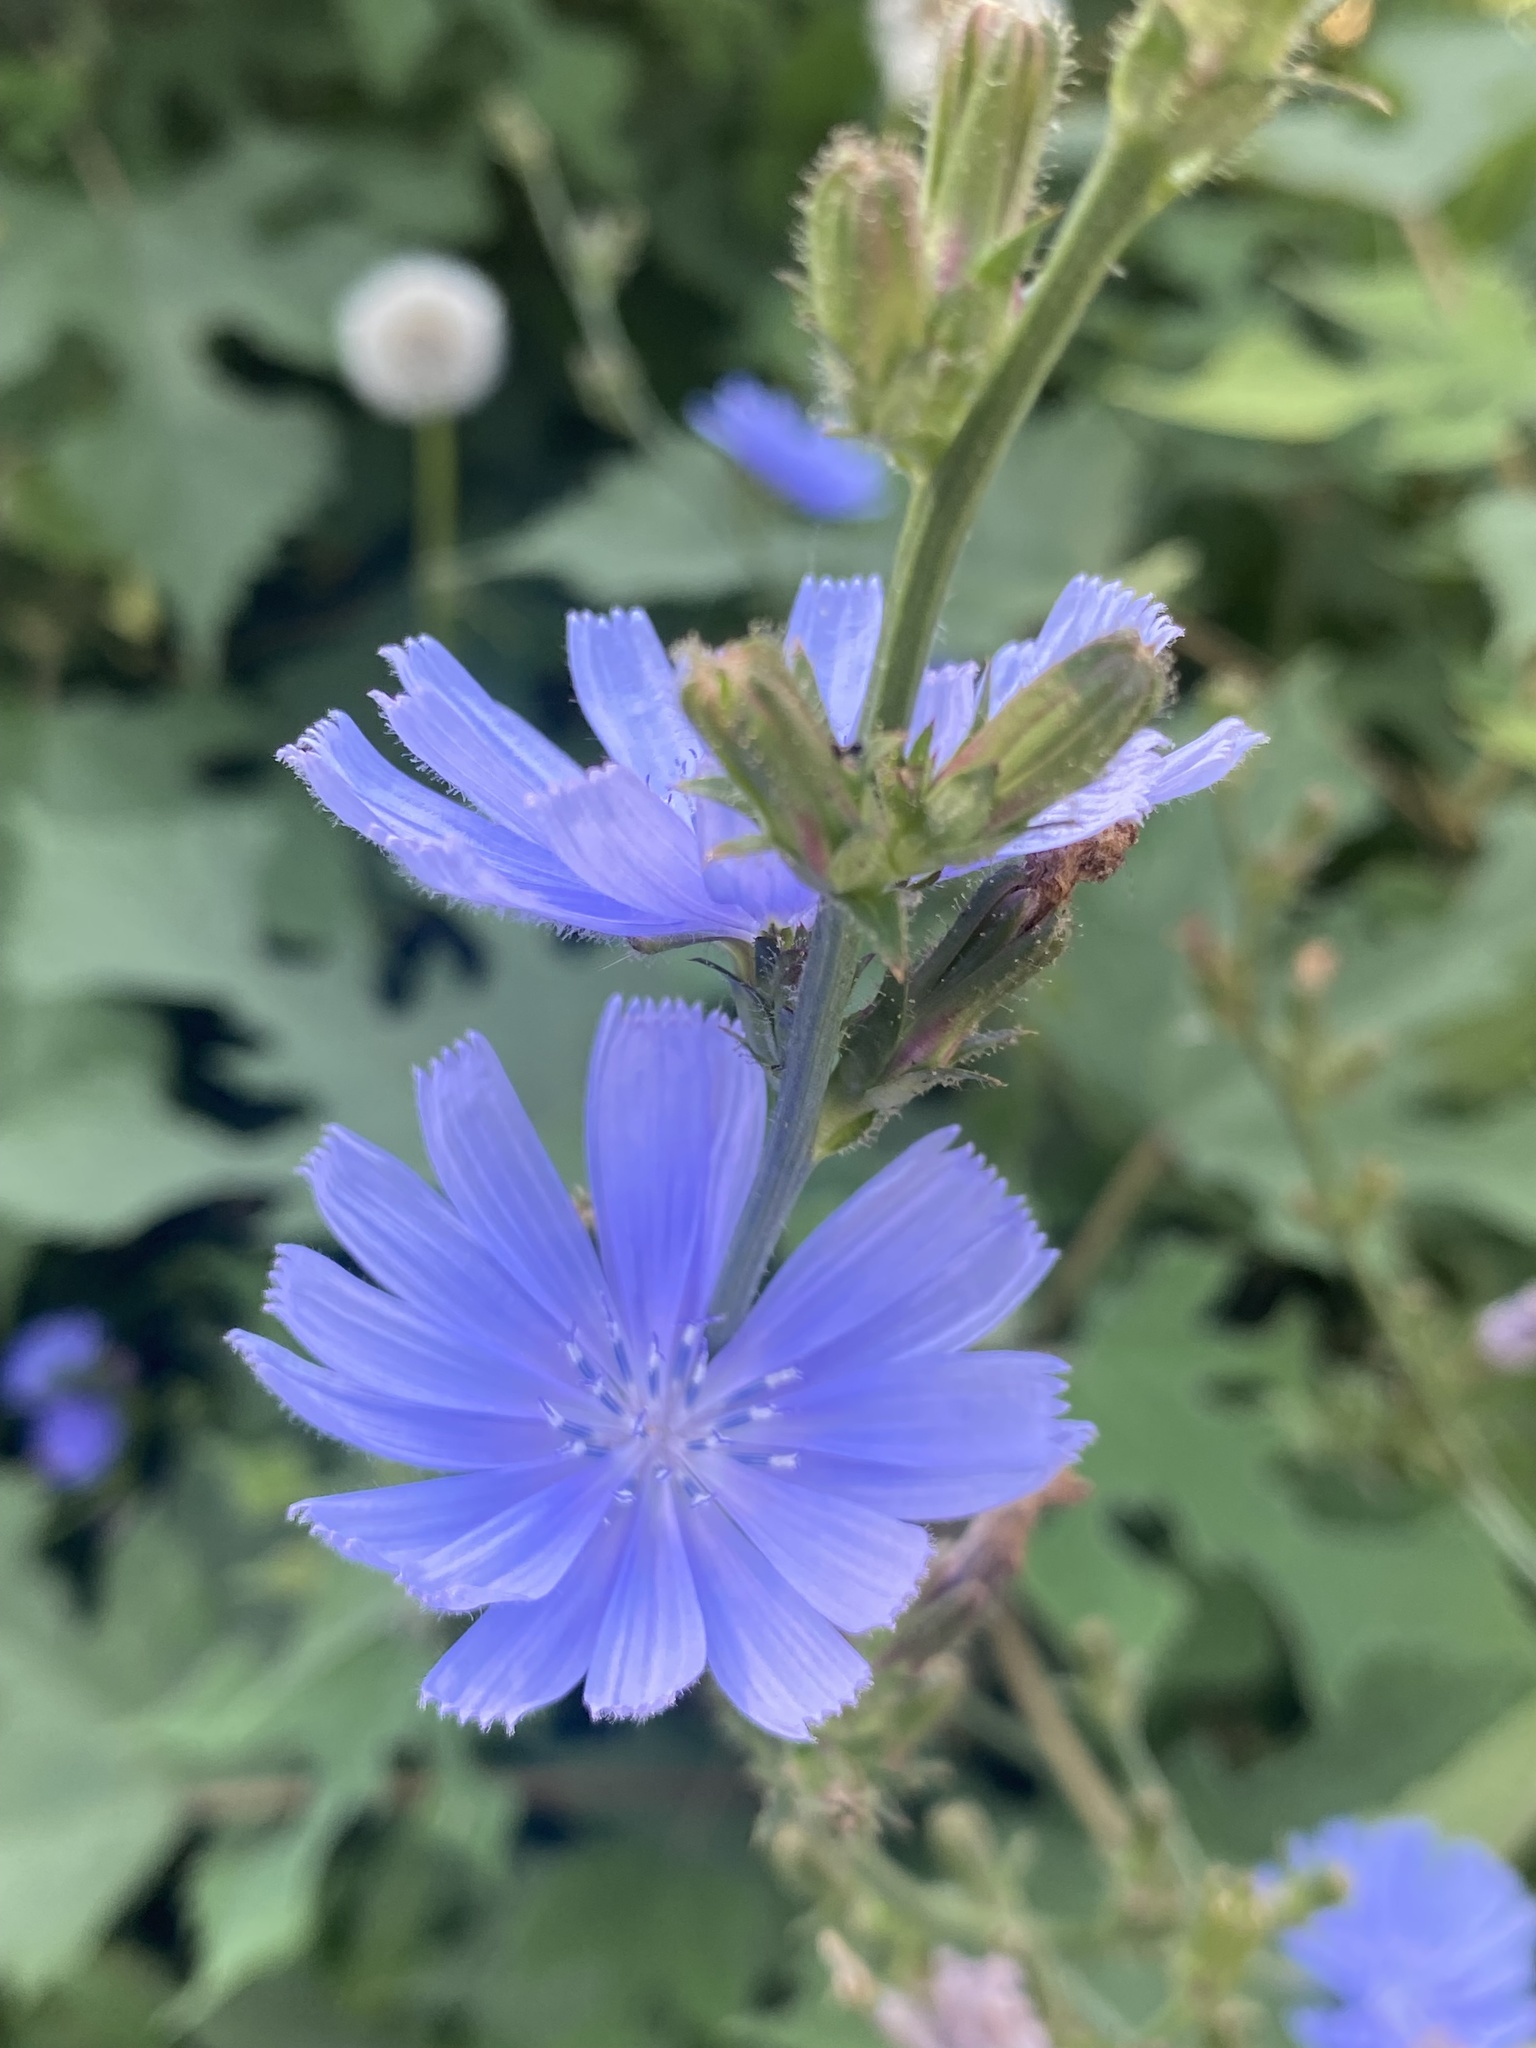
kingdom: Plantae
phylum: Tracheophyta
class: Magnoliopsida
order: Asterales
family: Asteraceae
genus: Cichorium
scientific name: Cichorium intybus
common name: Chicory
